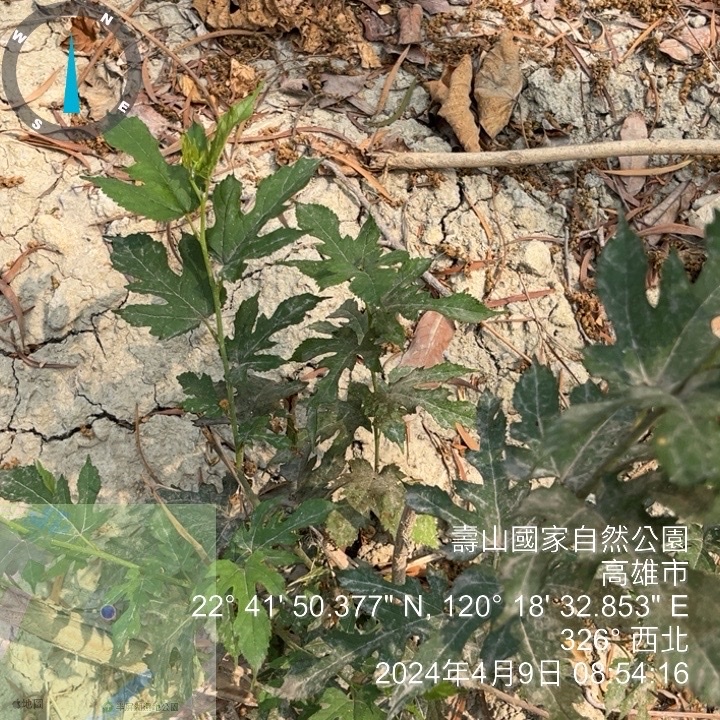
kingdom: Plantae
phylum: Tracheophyta
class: Magnoliopsida
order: Rosales
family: Moraceae
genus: Morus
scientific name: Morus indica
